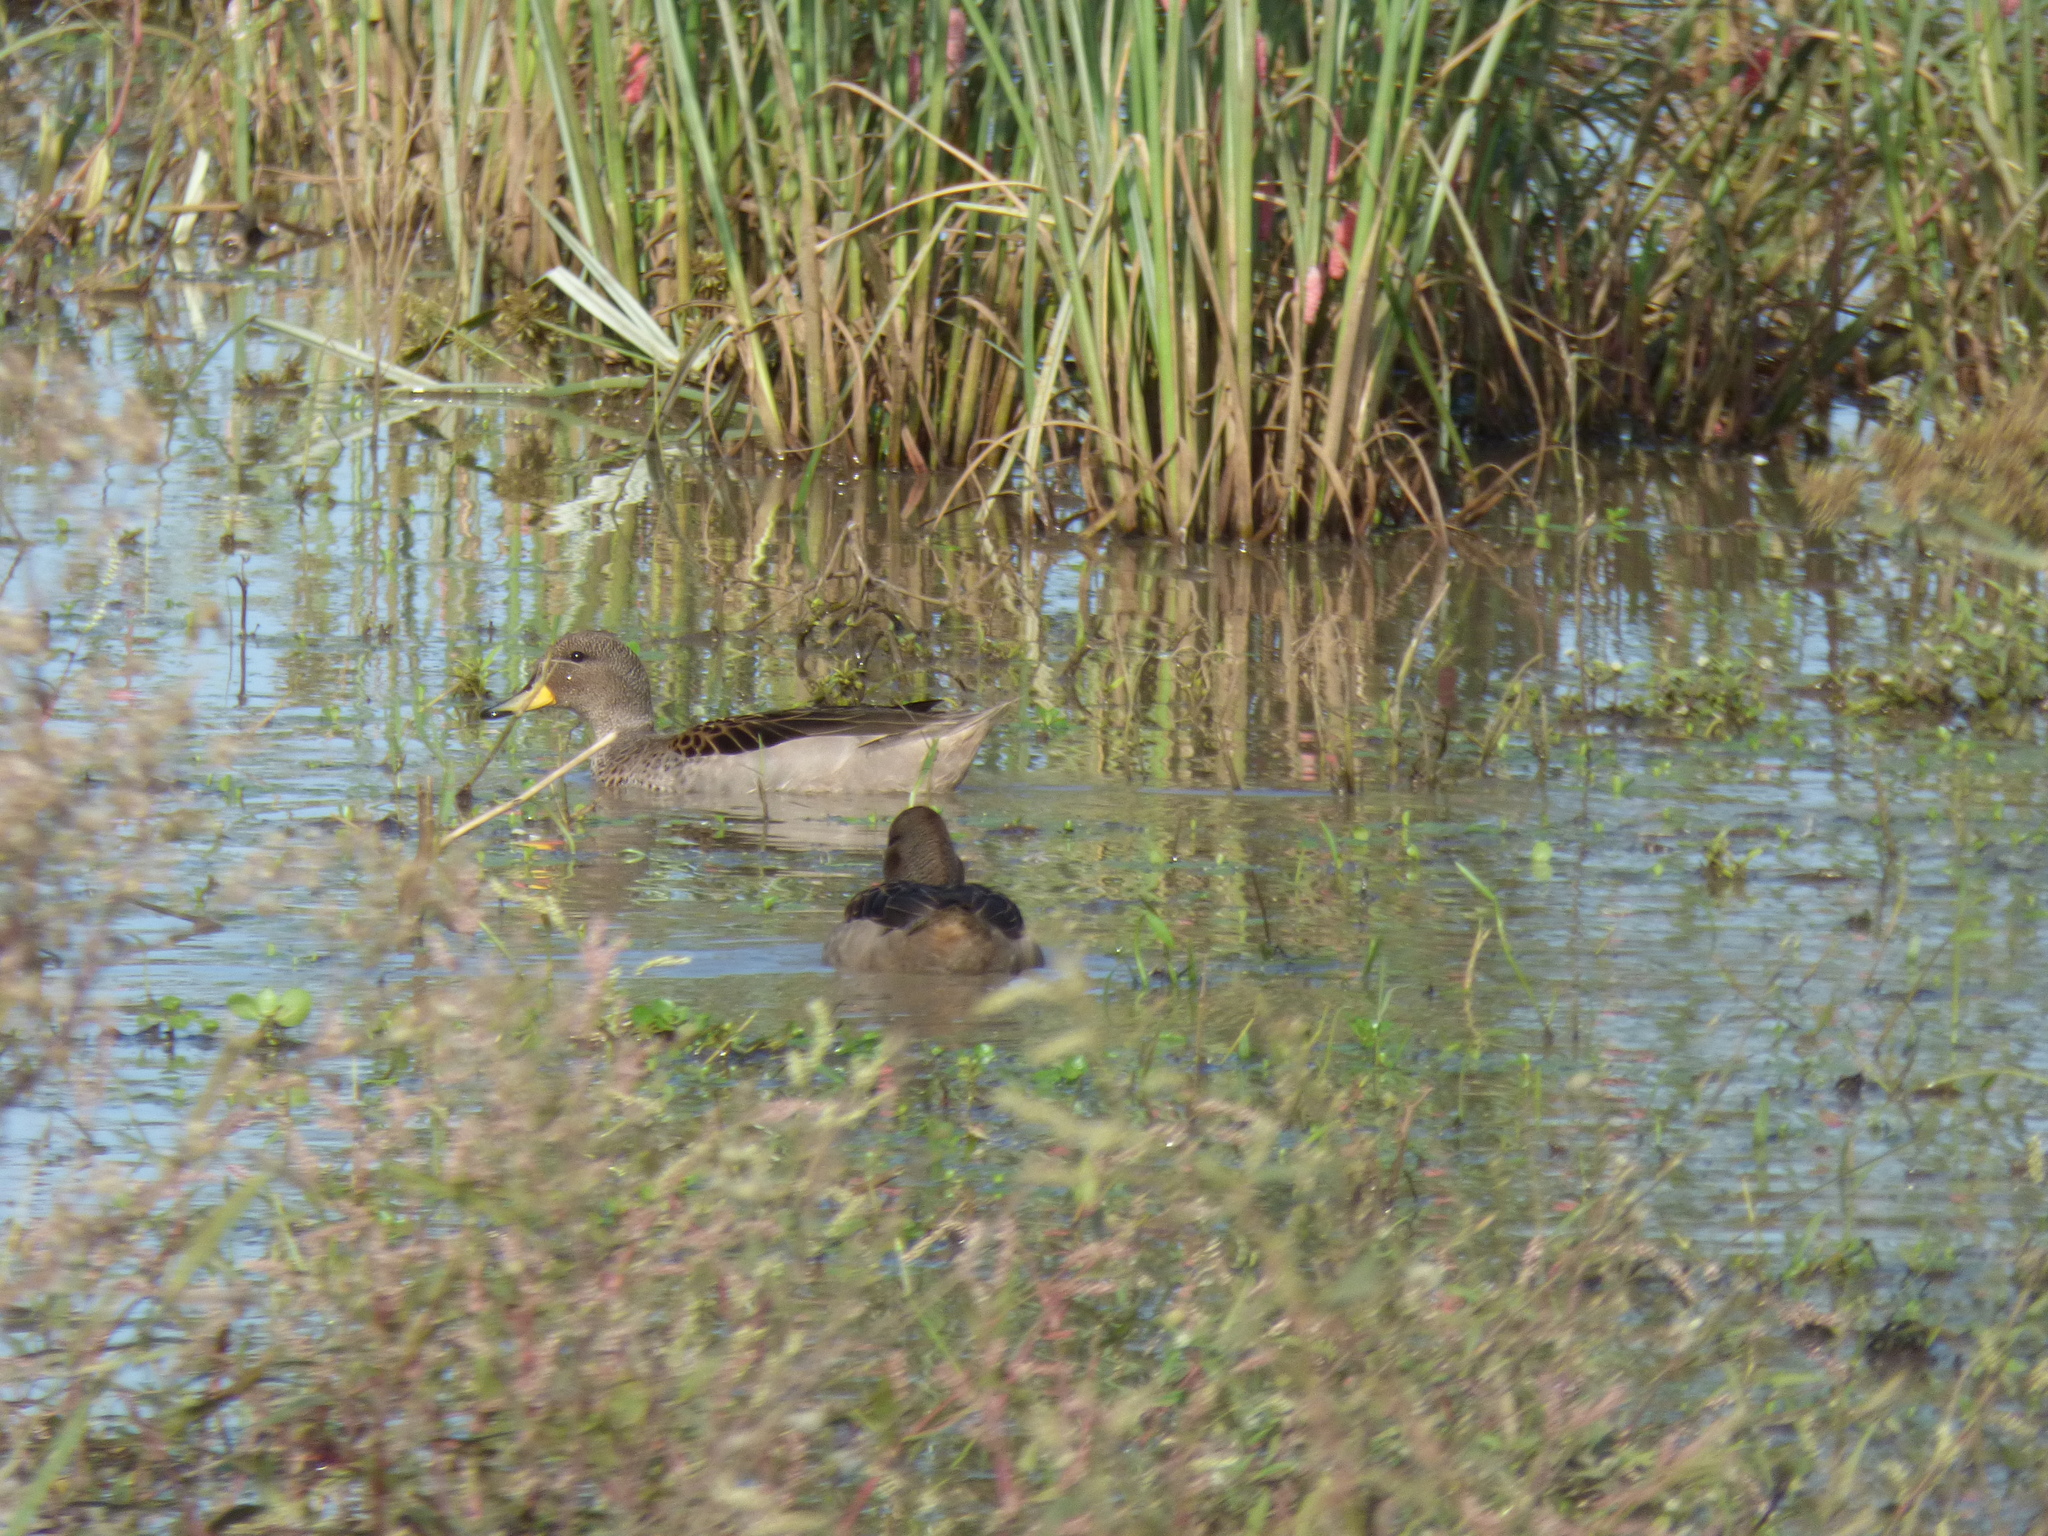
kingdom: Animalia
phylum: Chordata
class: Aves
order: Anseriformes
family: Anatidae
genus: Anas
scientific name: Anas flavirostris
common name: Yellow-billed teal
